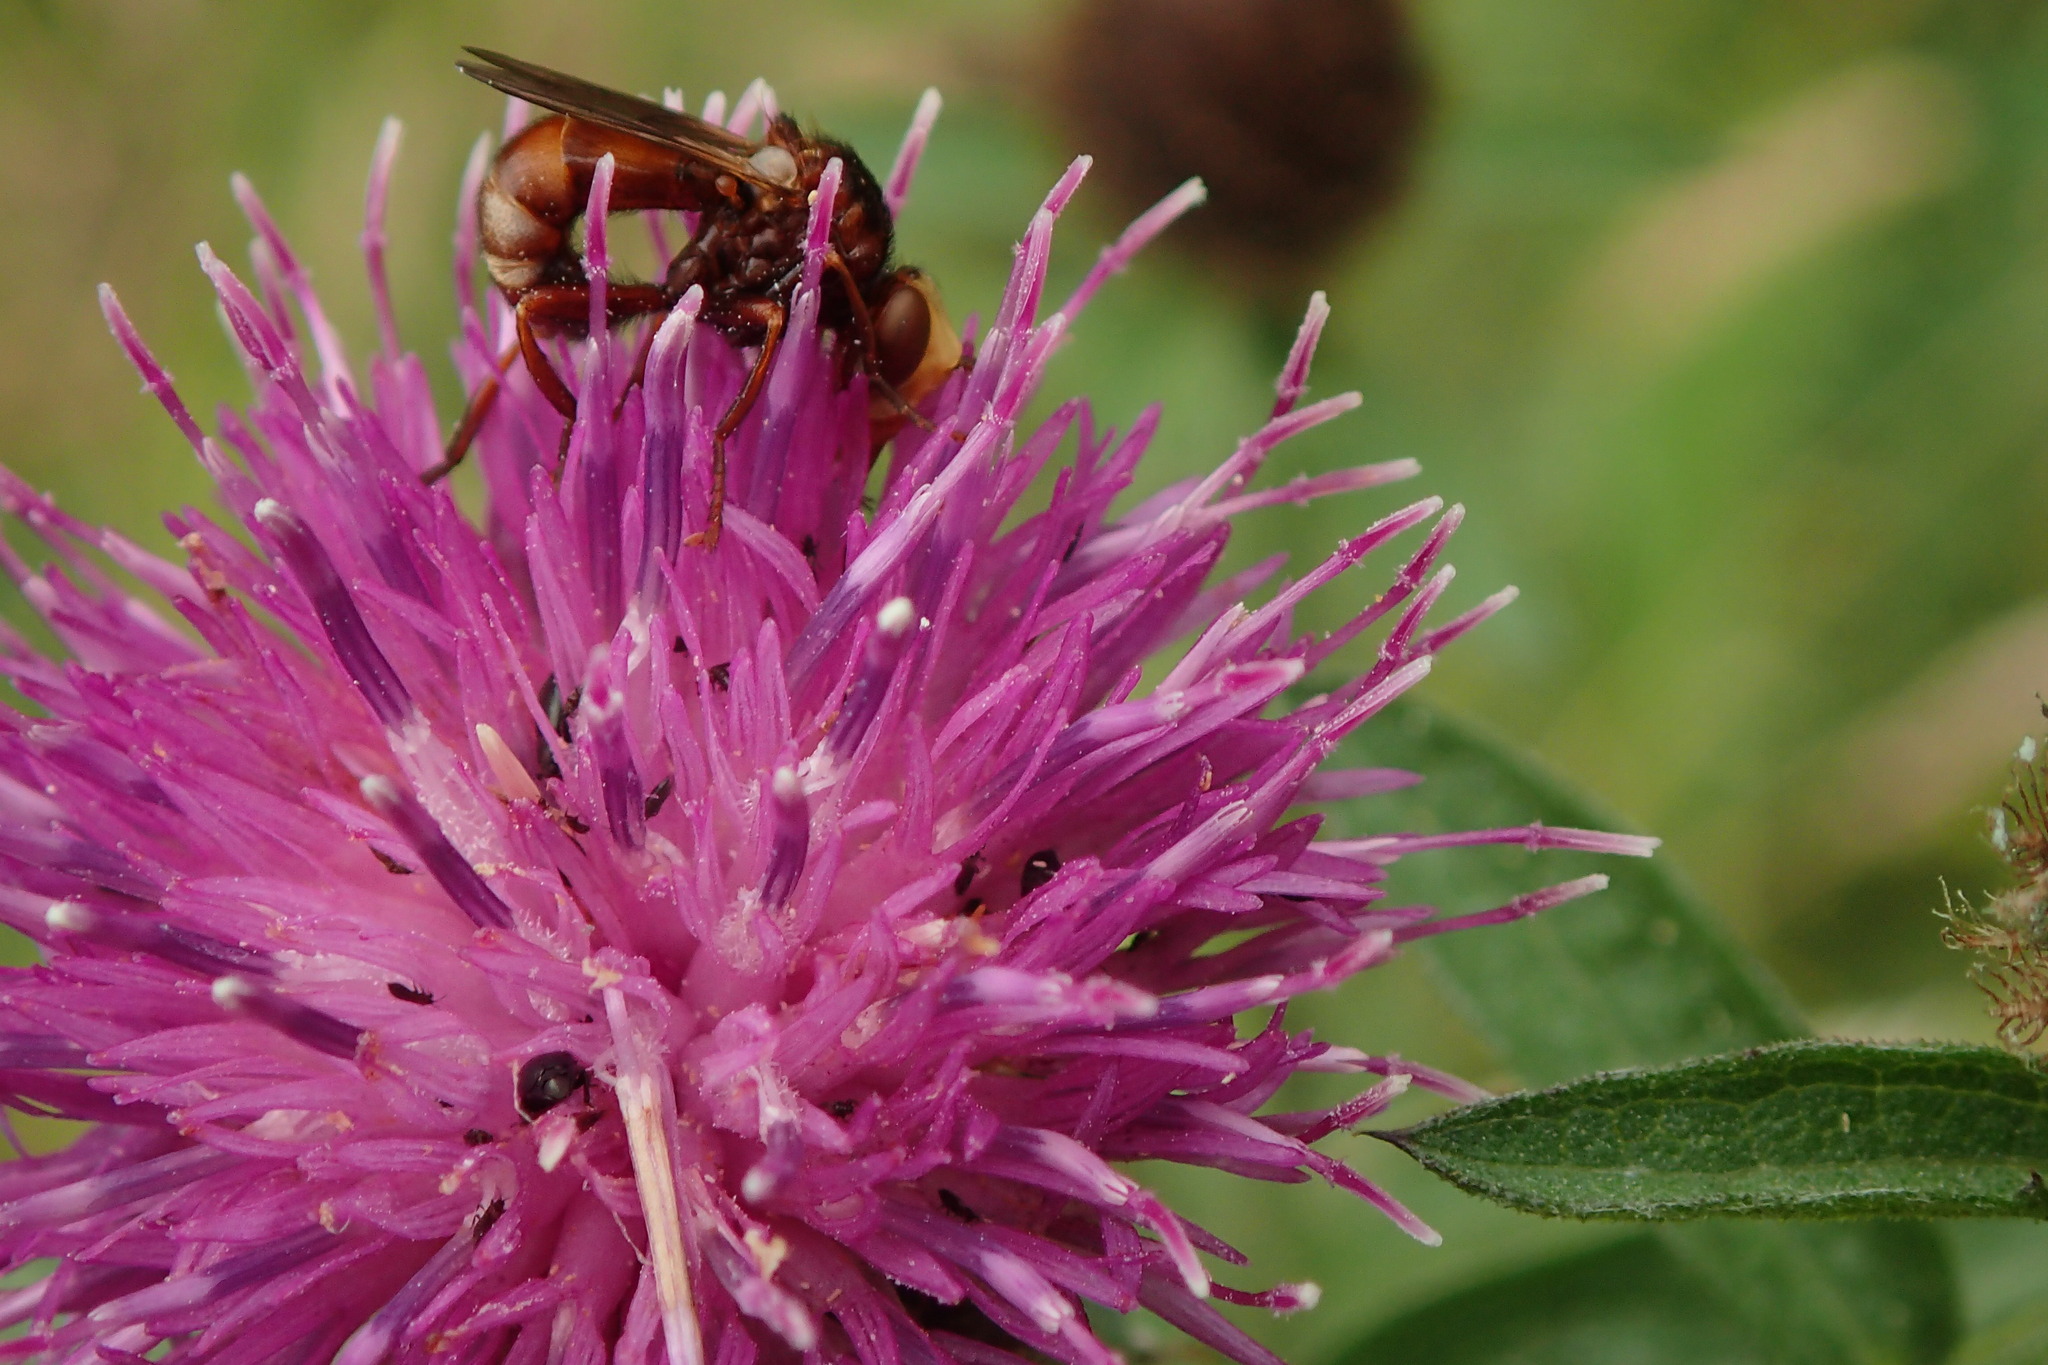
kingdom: Animalia
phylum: Arthropoda
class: Insecta
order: Diptera
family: Conopidae
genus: Sicus
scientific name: Sicus ferrugineus
